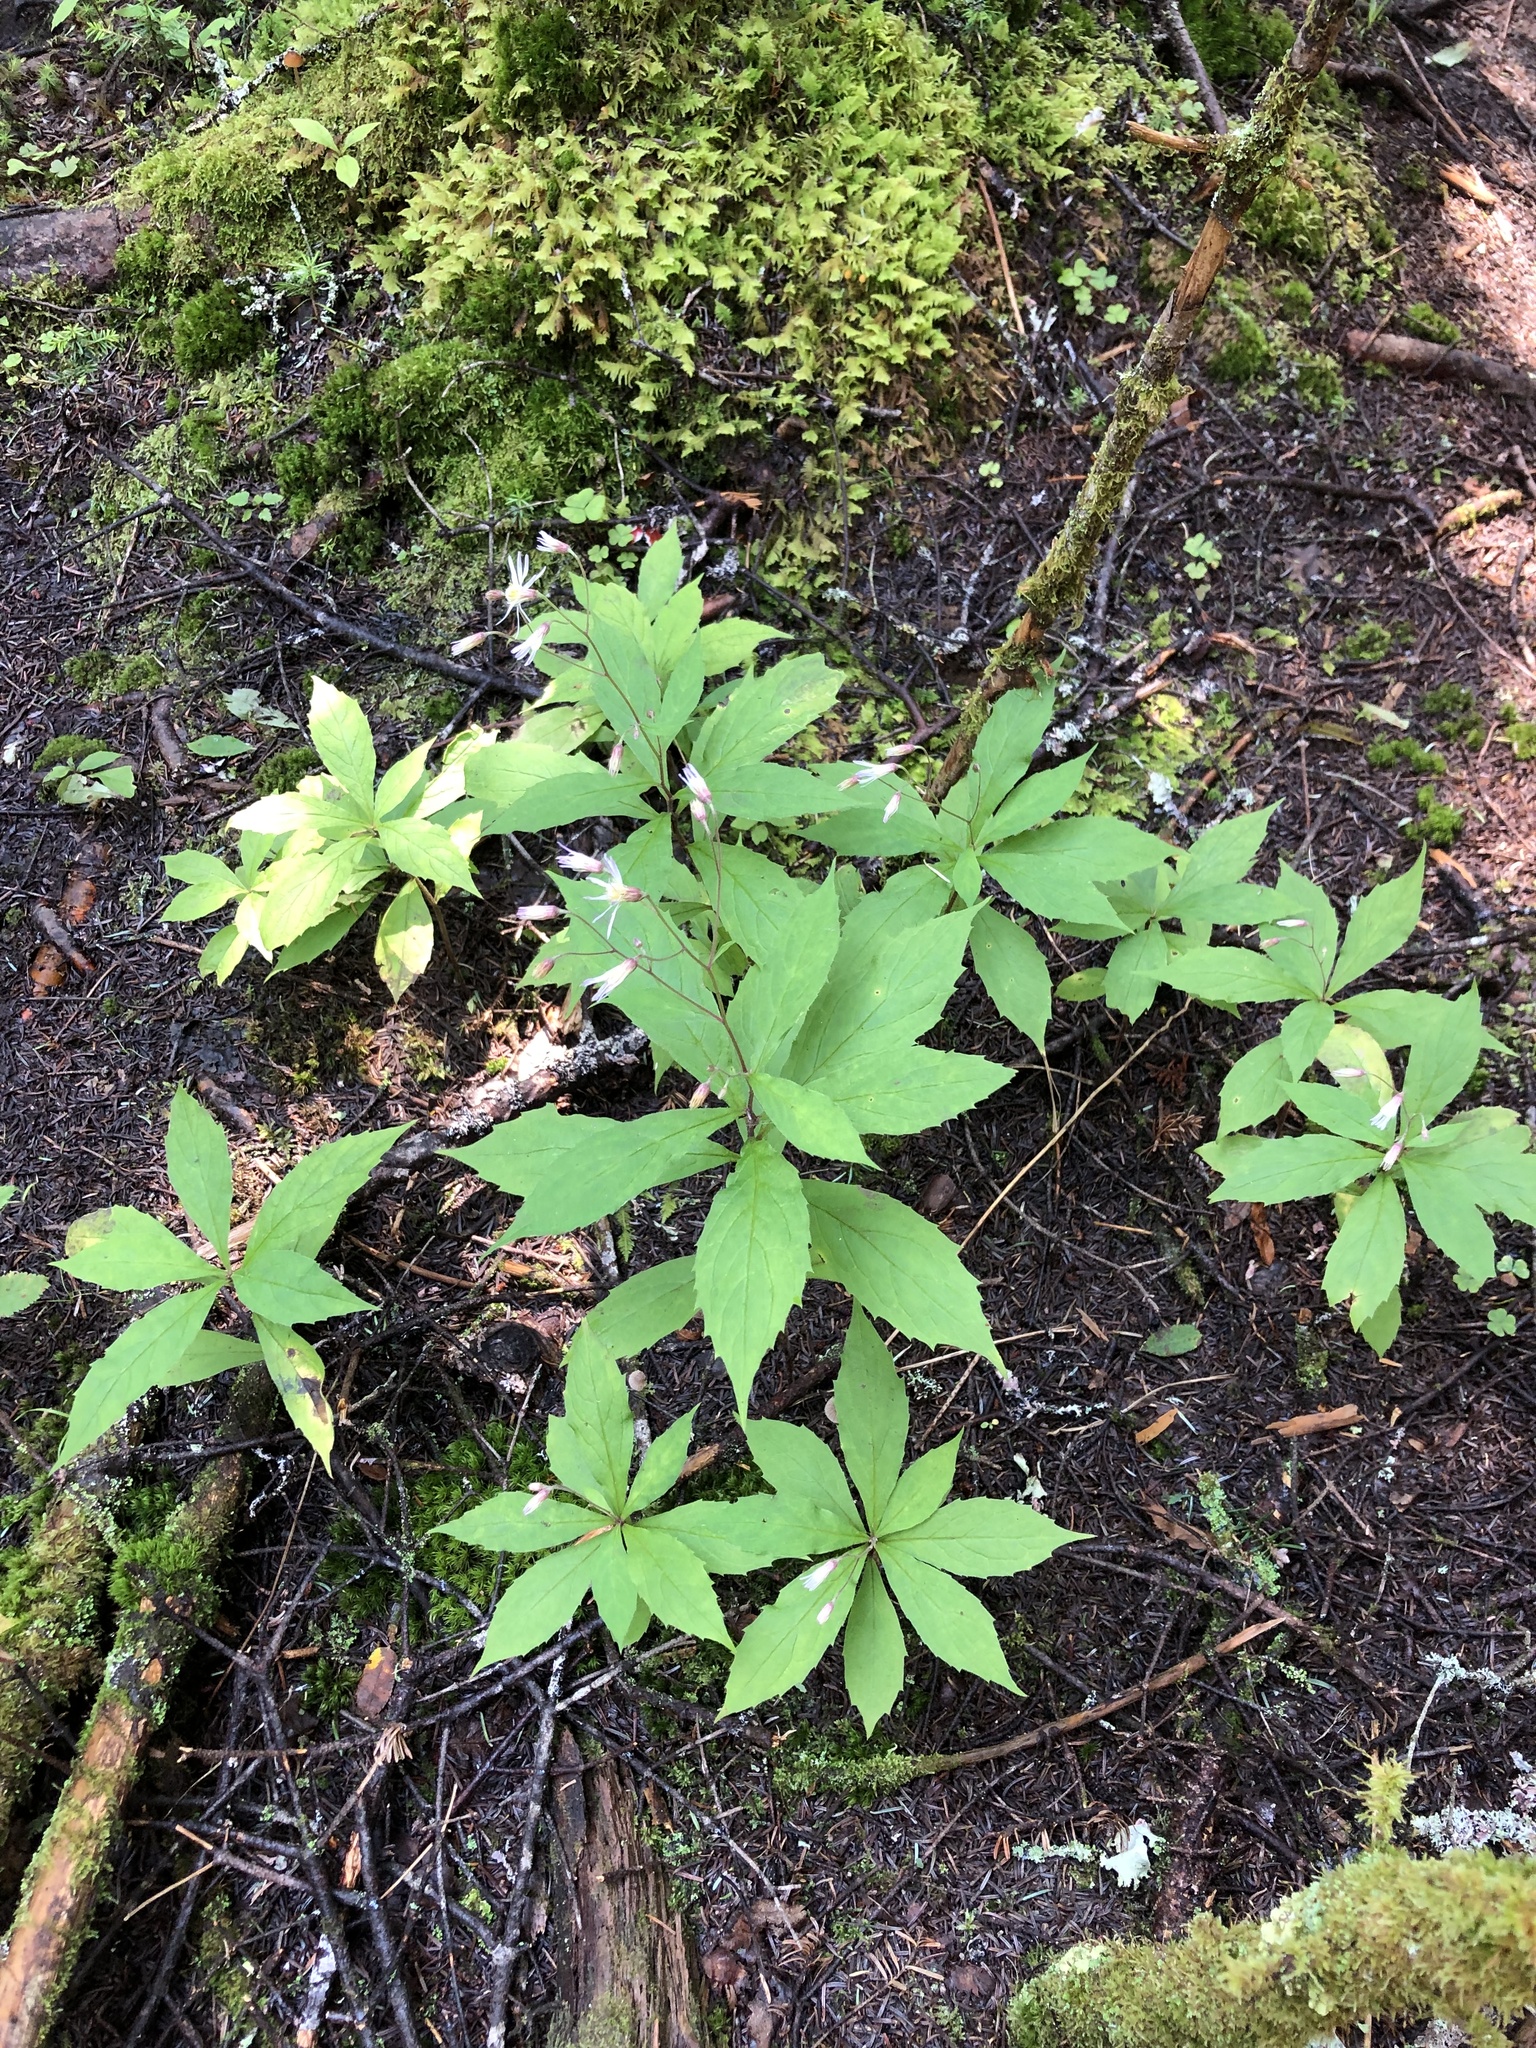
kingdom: Plantae
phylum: Tracheophyta
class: Magnoliopsida
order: Asterales
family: Asteraceae
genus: Oclemena
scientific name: Oclemena acuminata
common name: Mountain aster
